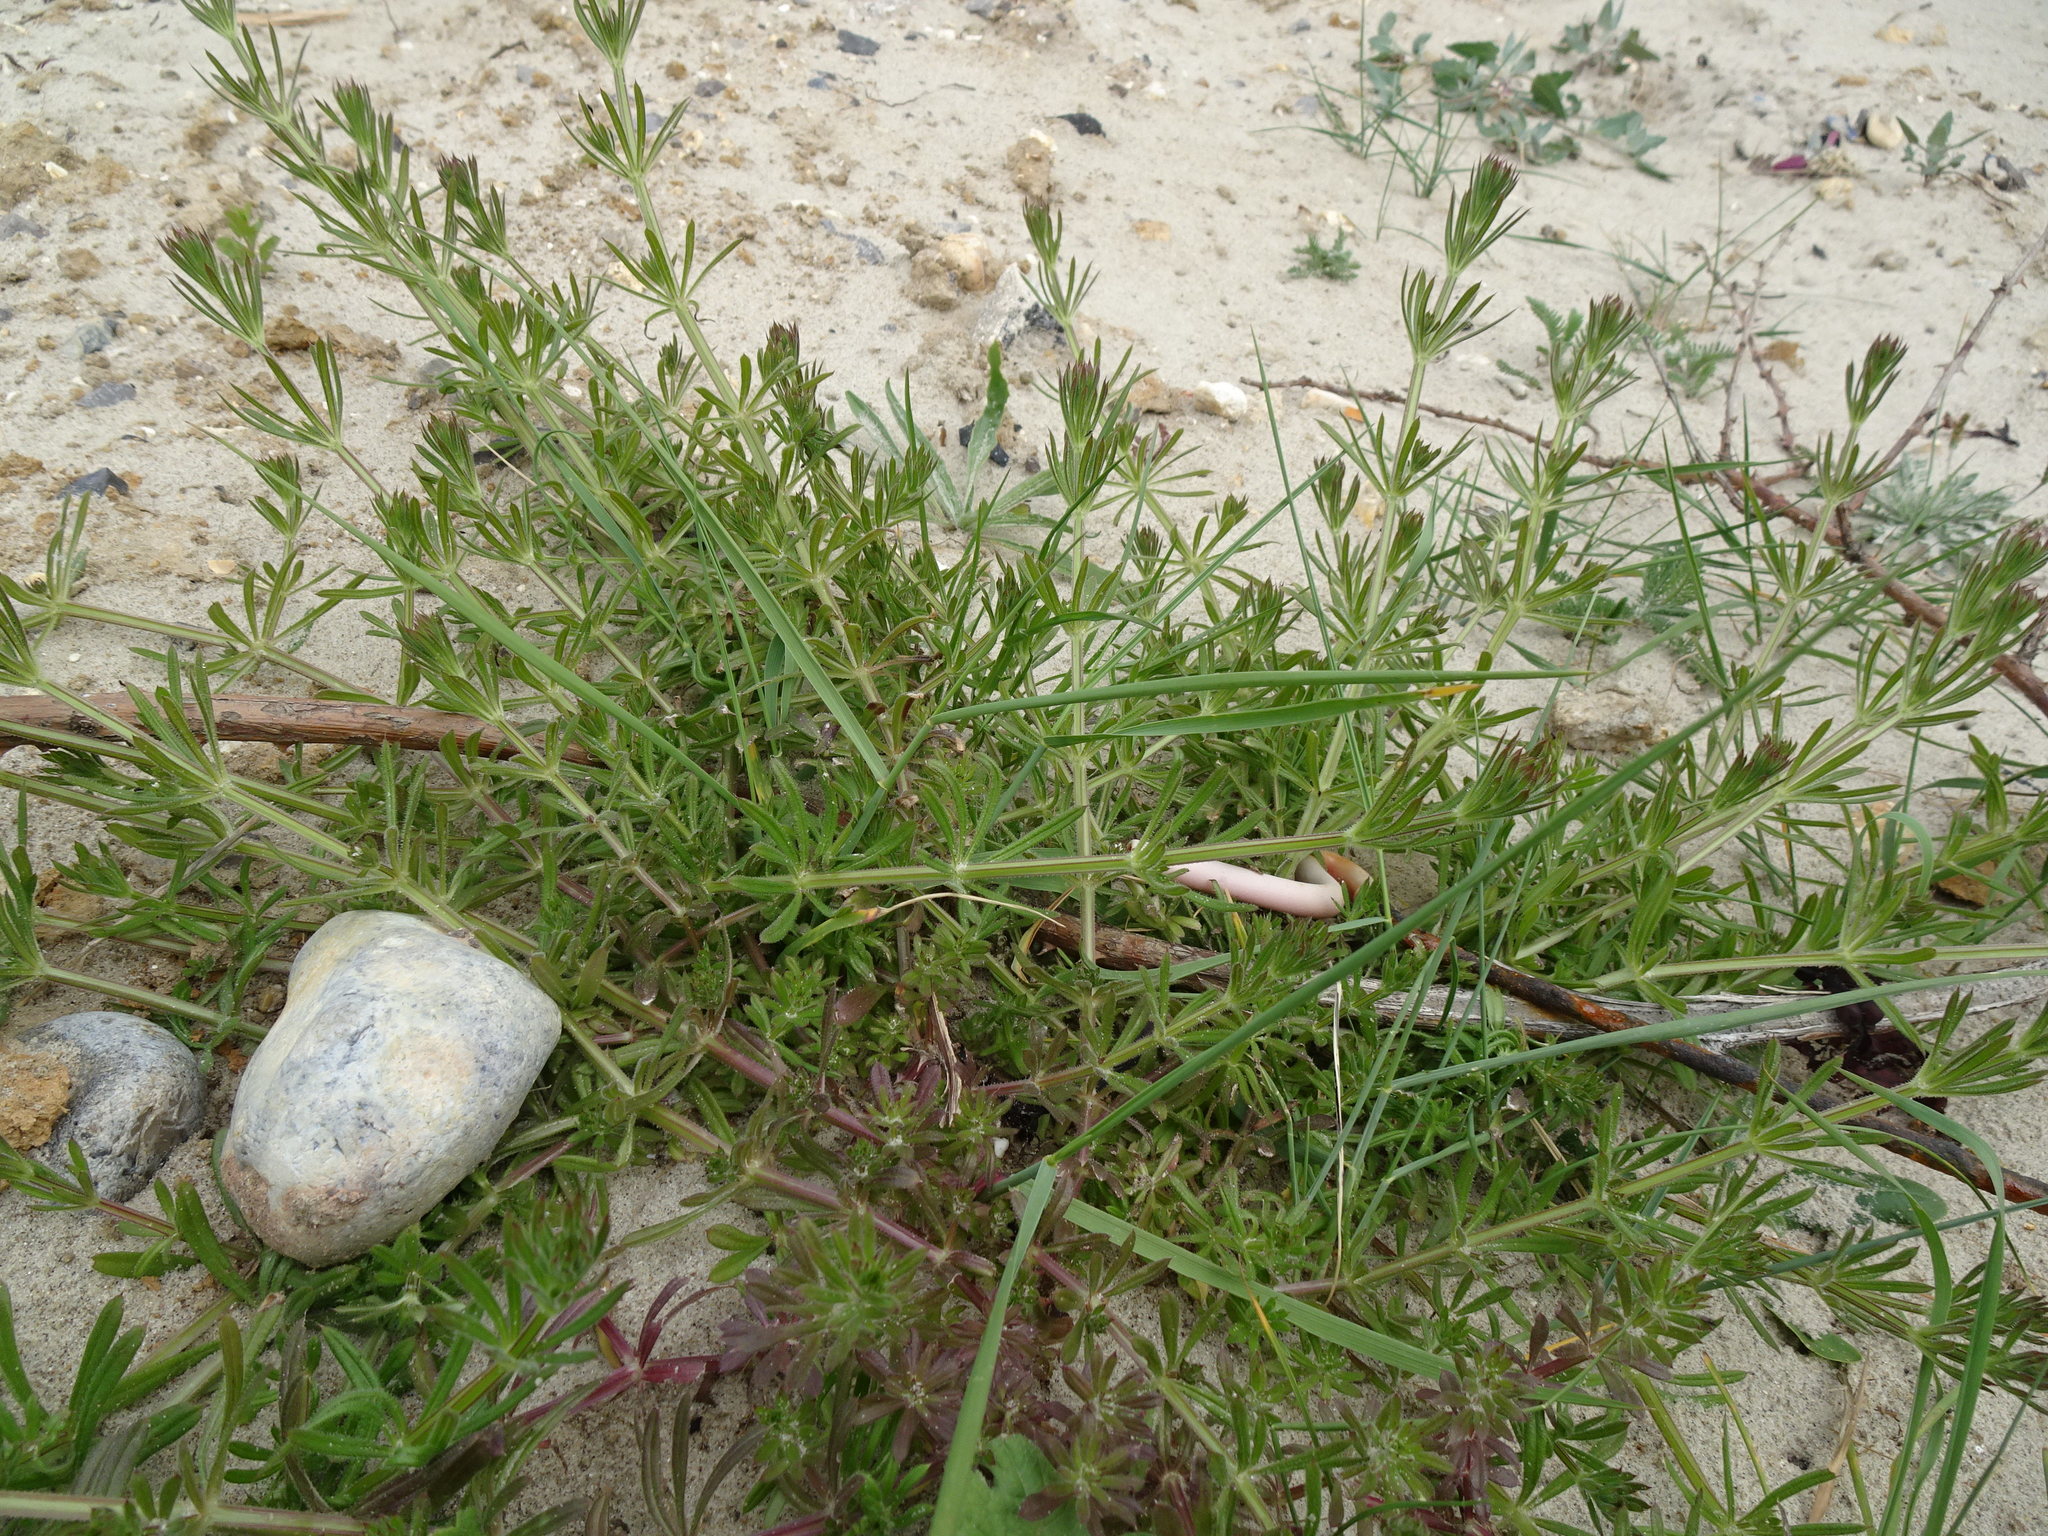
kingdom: Plantae
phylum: Tracheophyta
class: Magnoliopsida
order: Gentianales
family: Rubiaceae
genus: Galium
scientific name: Galium aparine
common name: Cleavers
